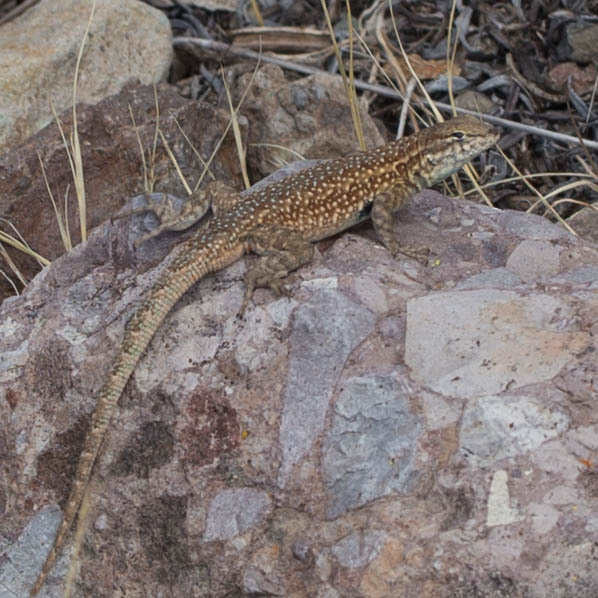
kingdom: Animalia
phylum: Chordata
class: Squamata
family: Phrynosomatidae
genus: Uta
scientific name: Uta stansburiana
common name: Side-blotched lizard
